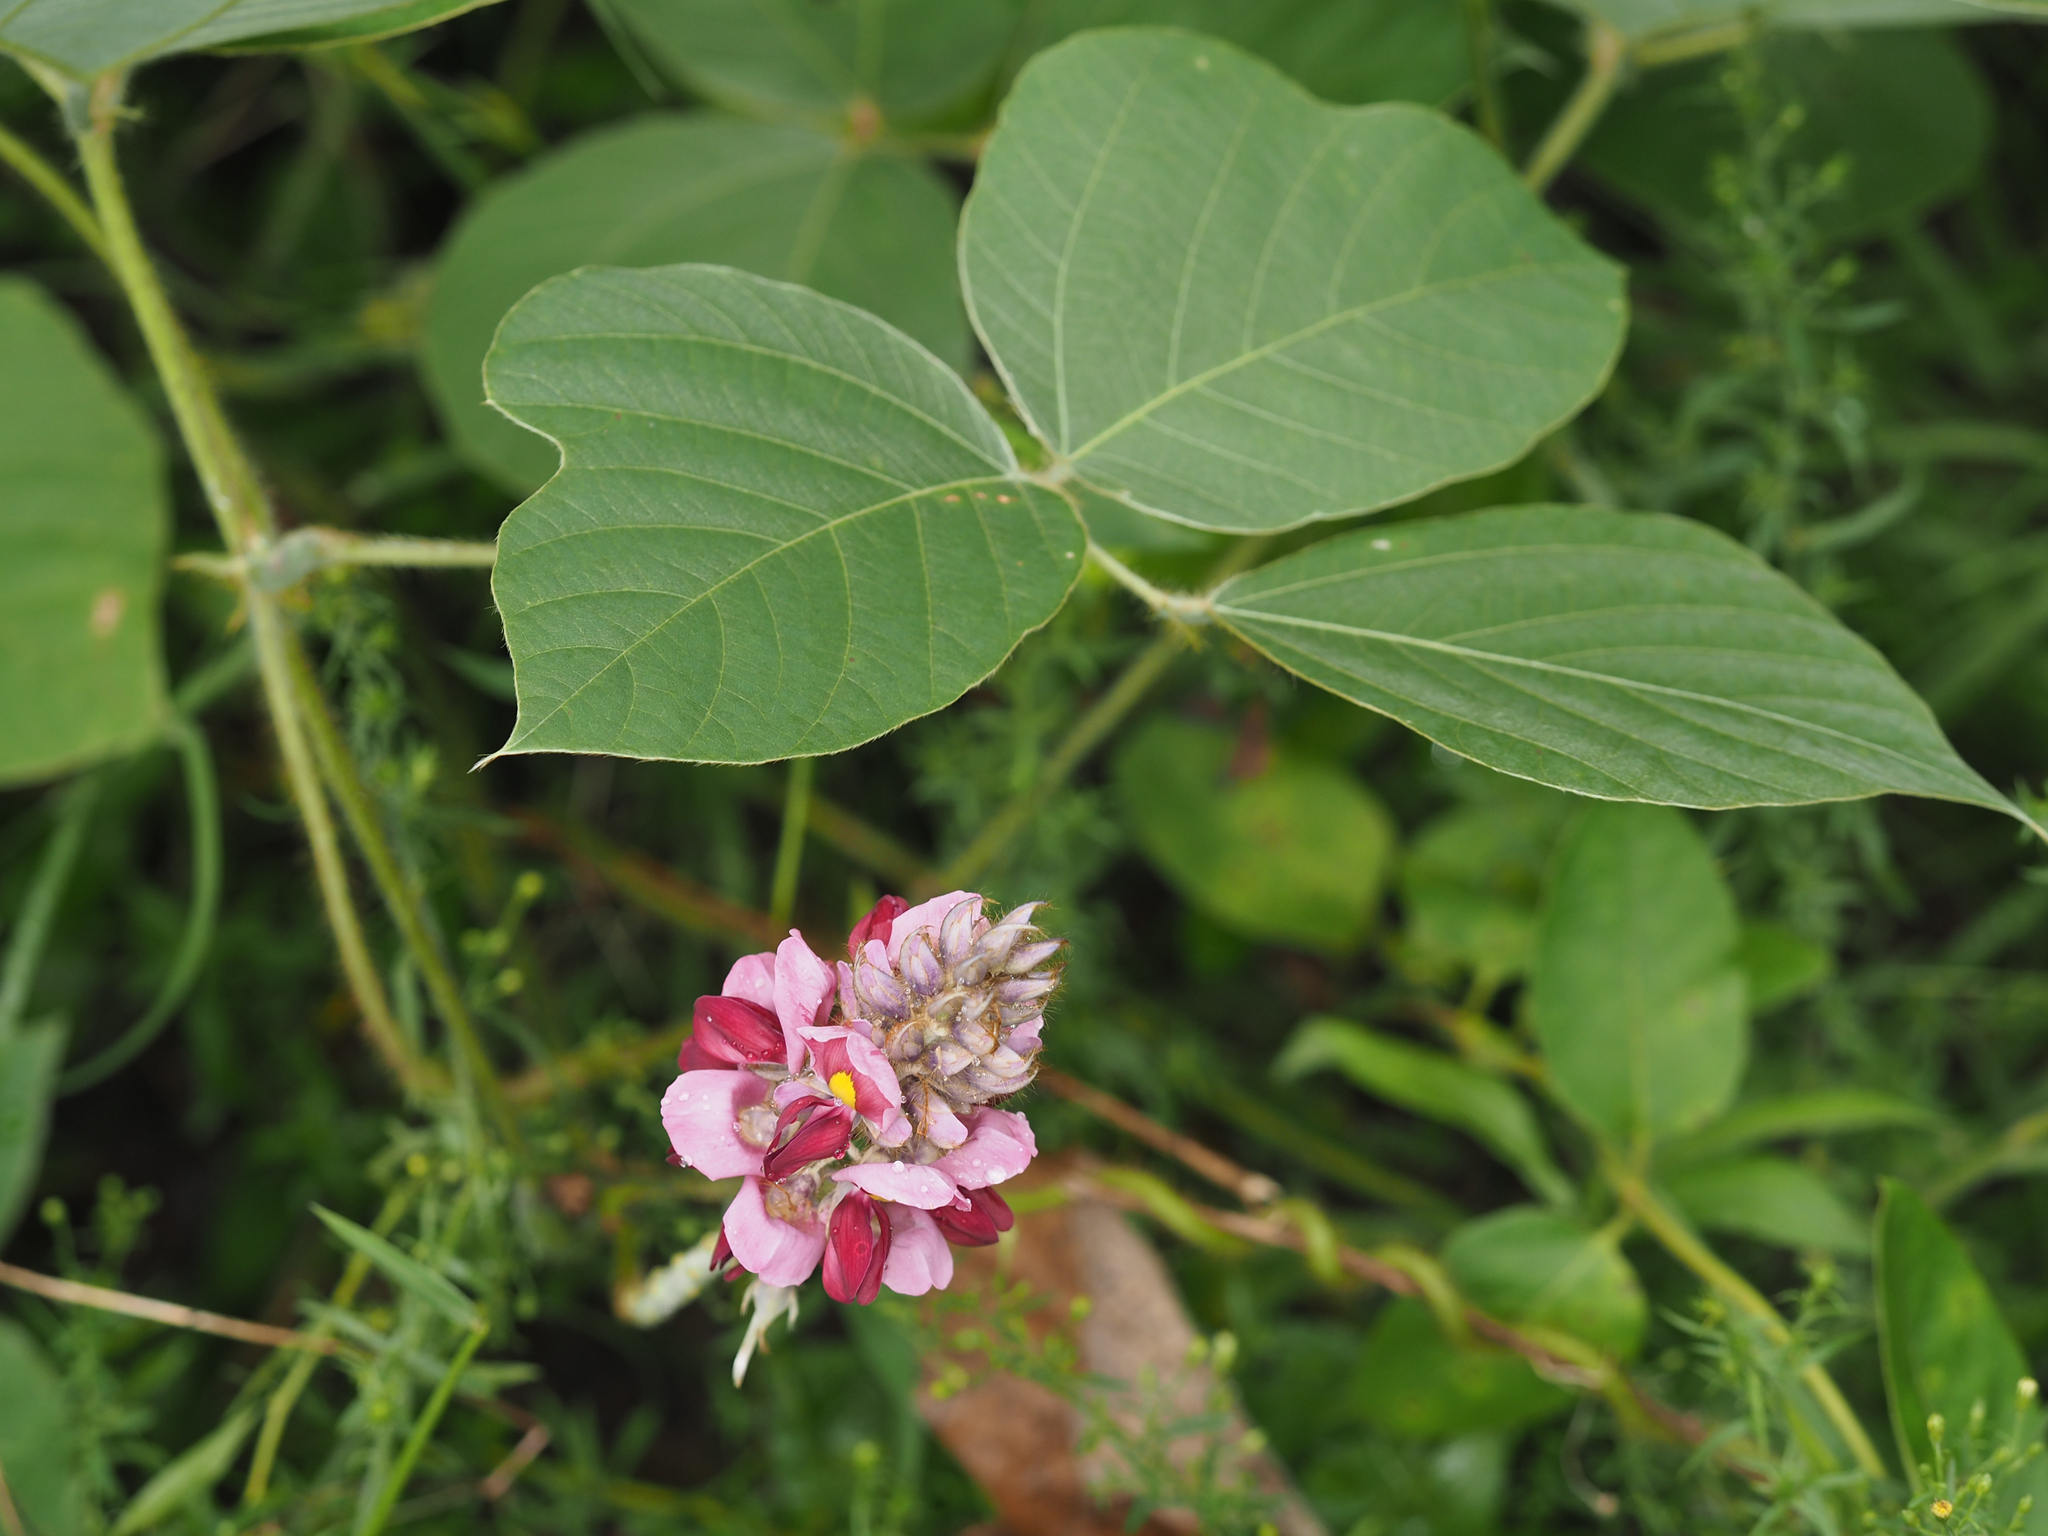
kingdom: Plantae
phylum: Tracheophyta
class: Magnoliopsida
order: Fabales
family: Fabaceae
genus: Pueraria
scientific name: Pueraria montana
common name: Kudzu
